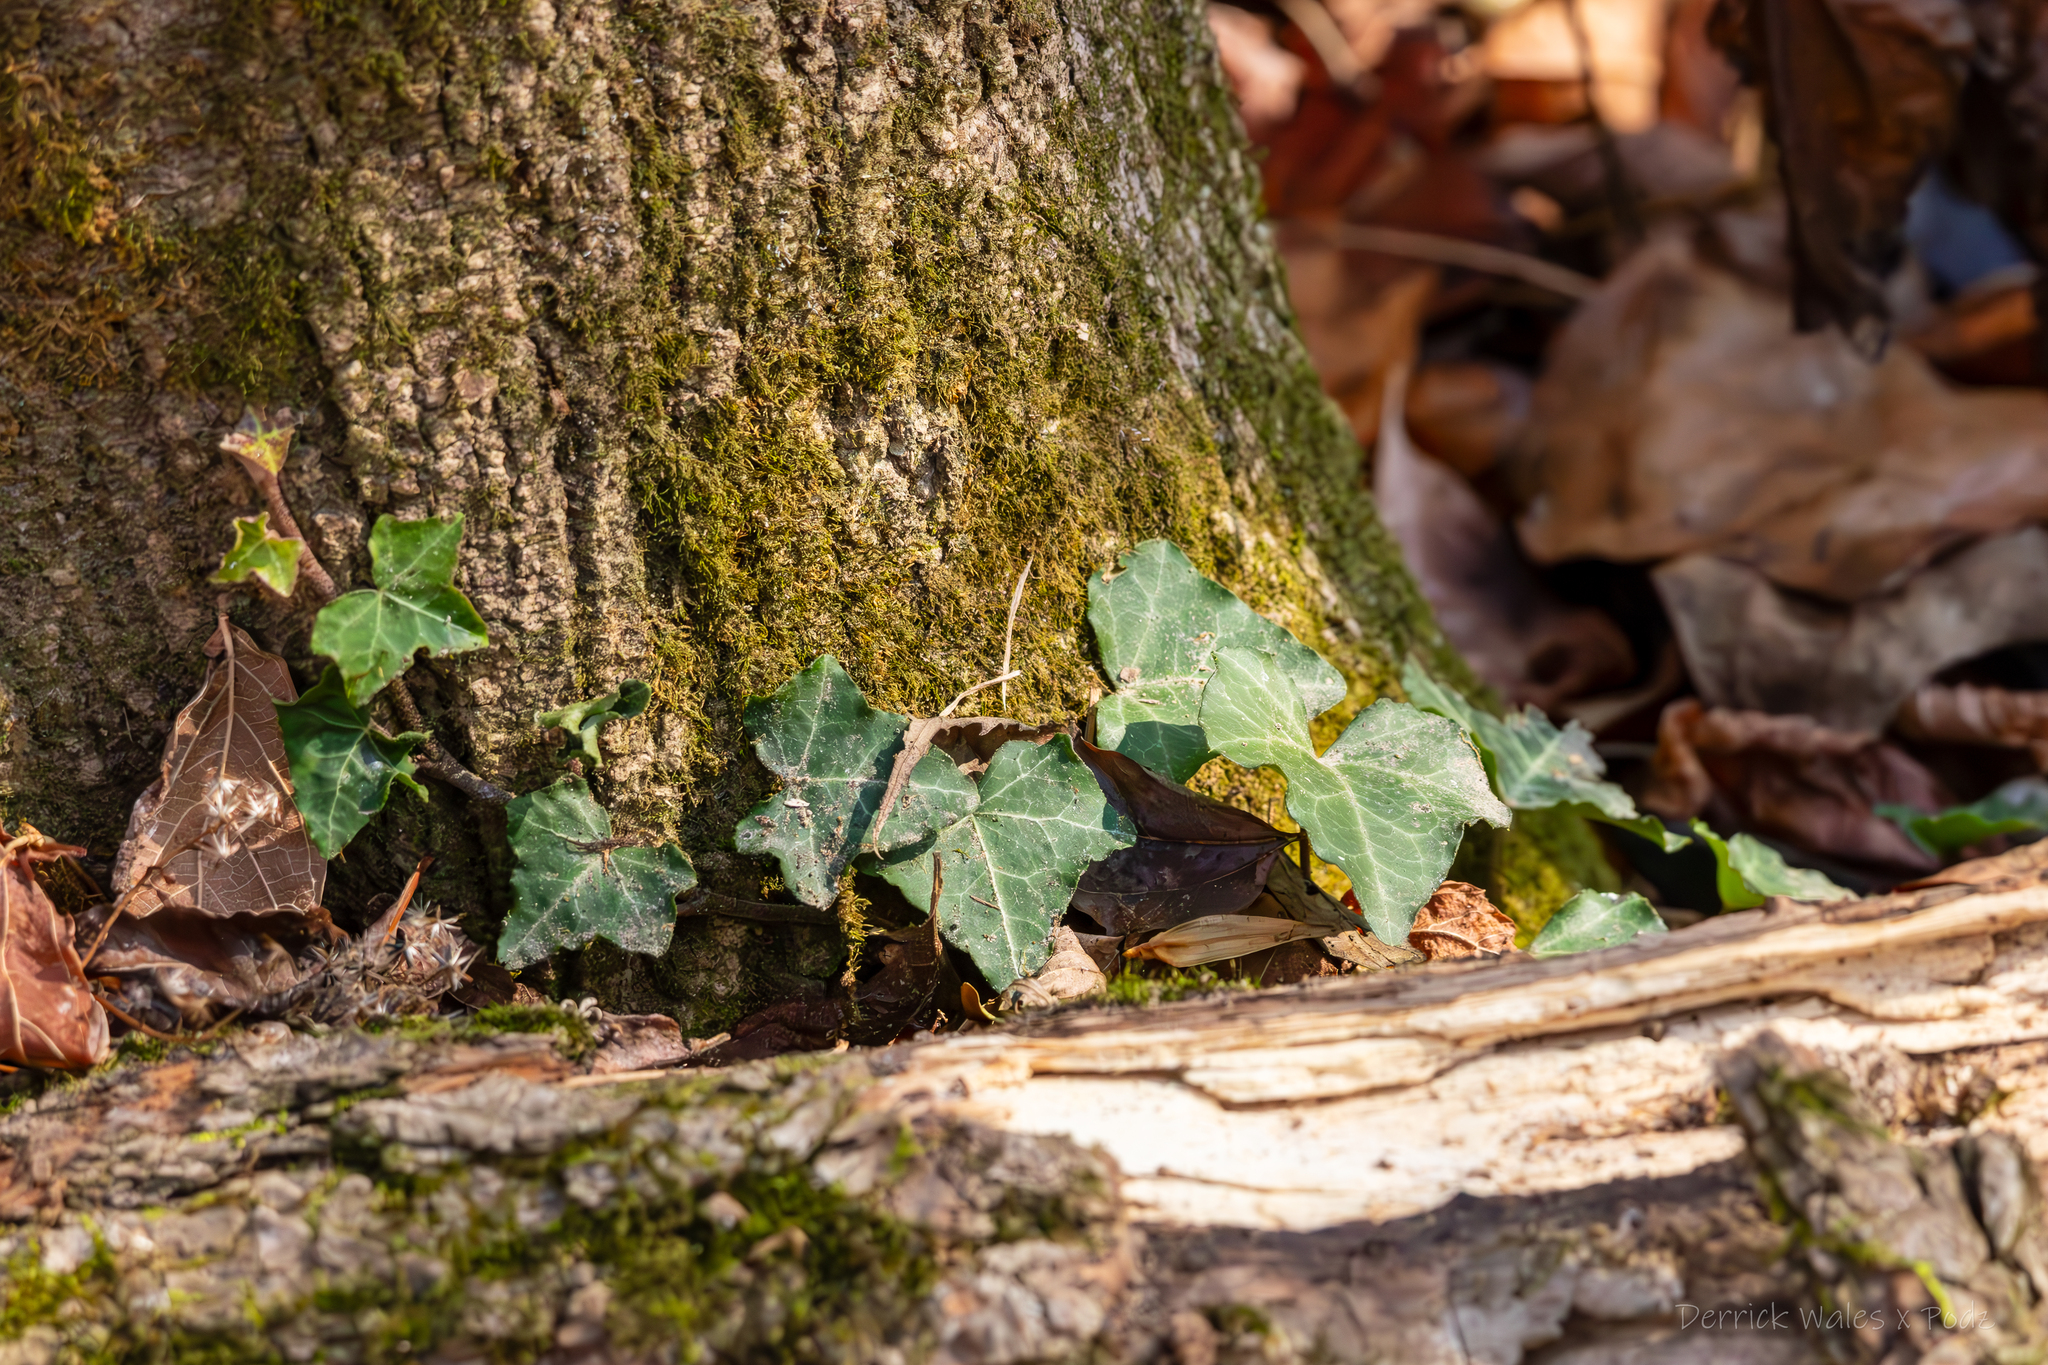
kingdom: Plantae
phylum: Tracheophyta
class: Magnoliopsida
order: Apiales
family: Araliaceae
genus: Hedera
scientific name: Hedera helix
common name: Ivy
